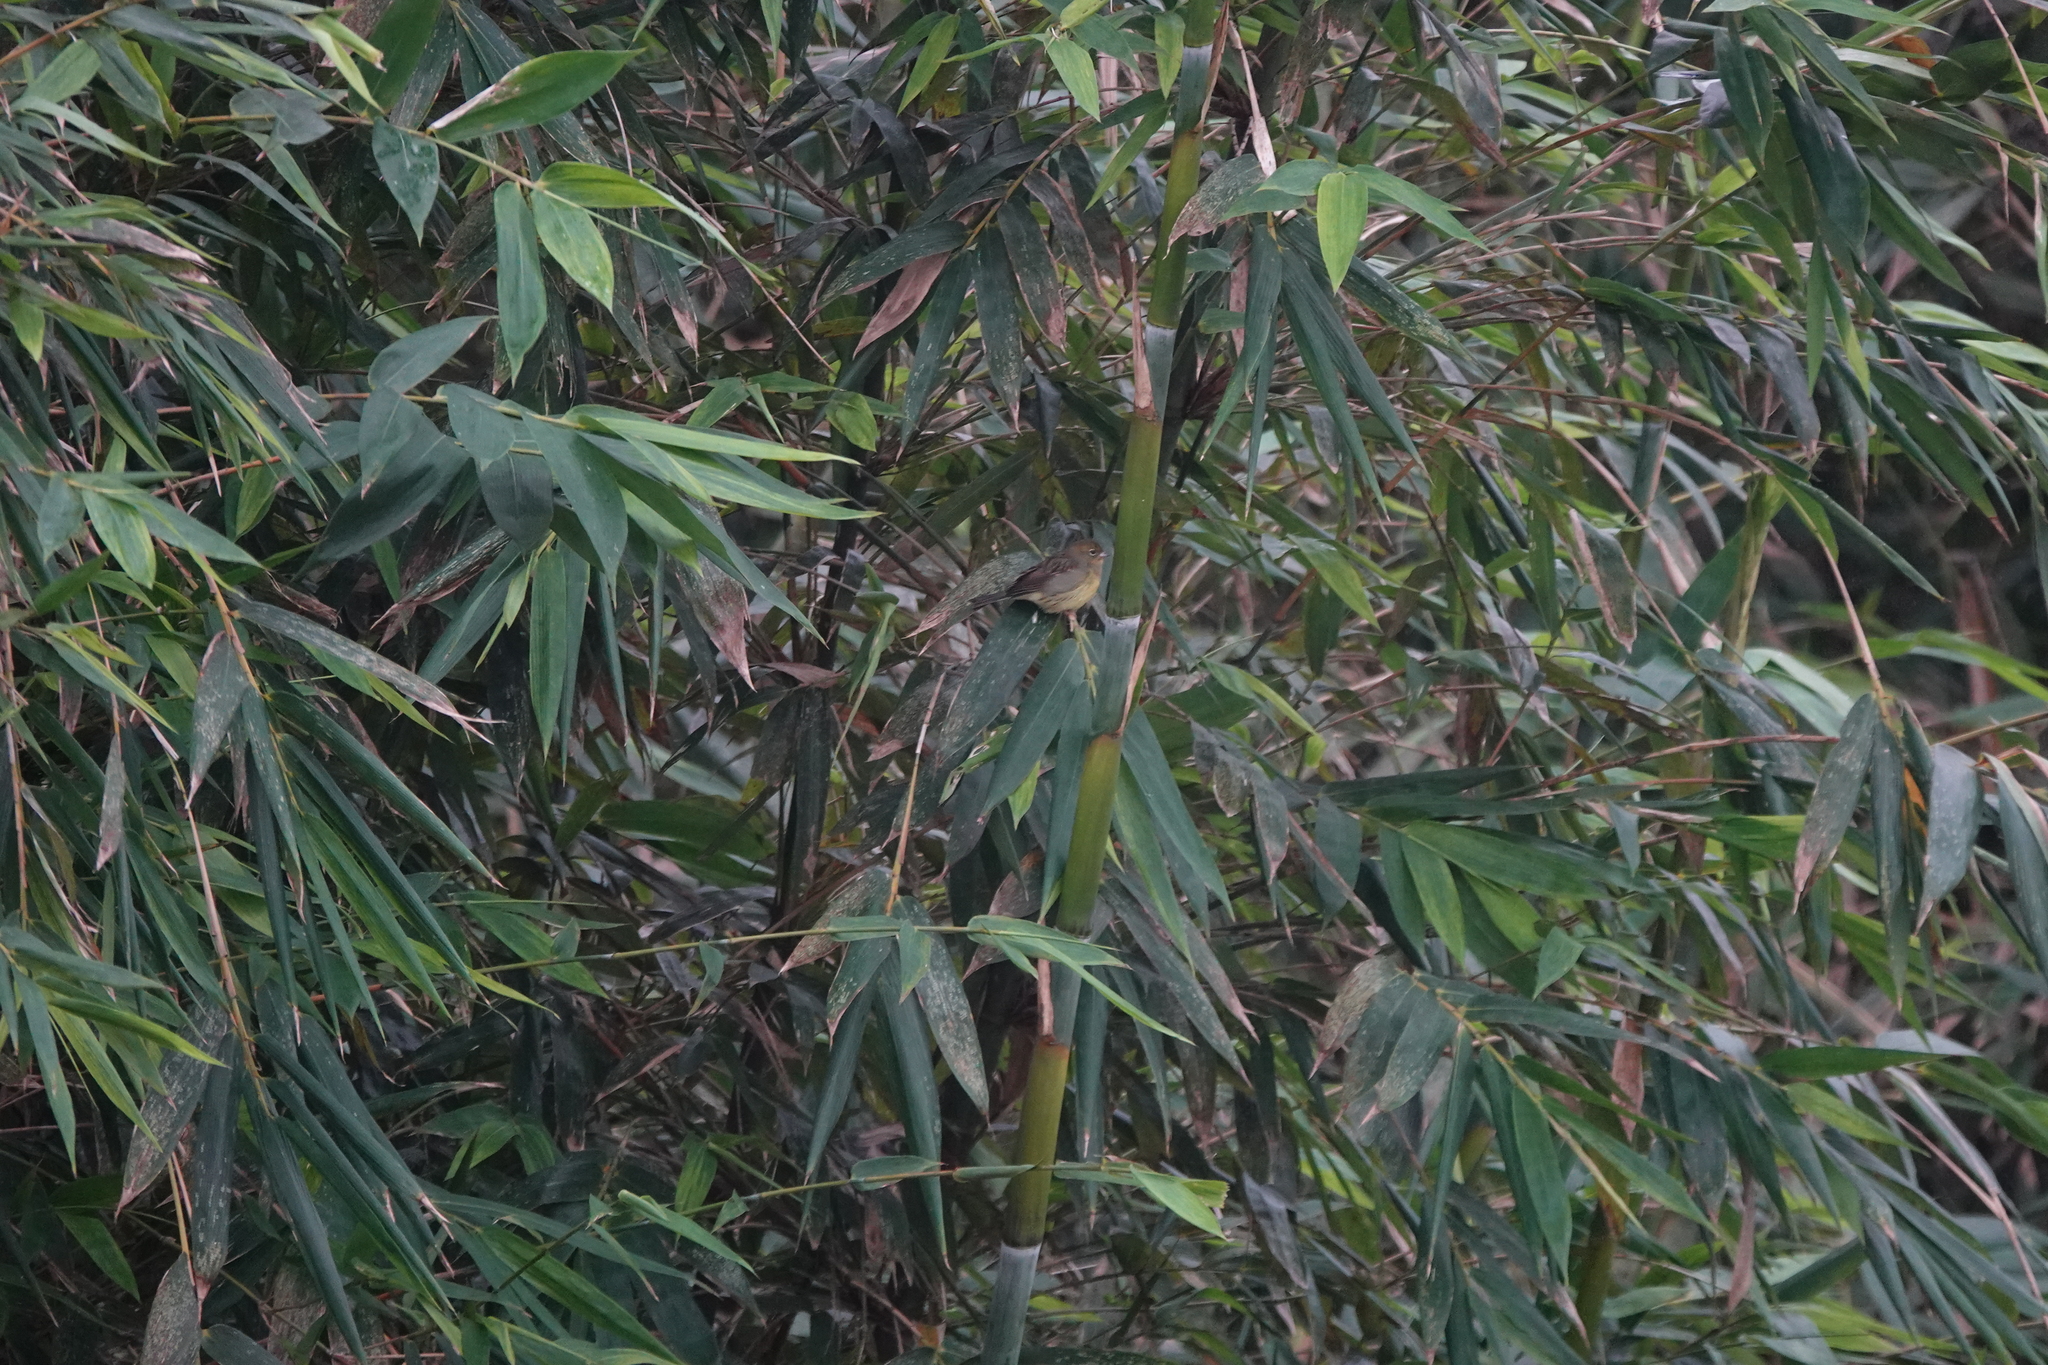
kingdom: Animalia
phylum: Chordata
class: Aves
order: Passeriformes
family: Emberizidae
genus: Emberiza
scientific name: Emberiza sulphurata
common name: Yellow bunting
